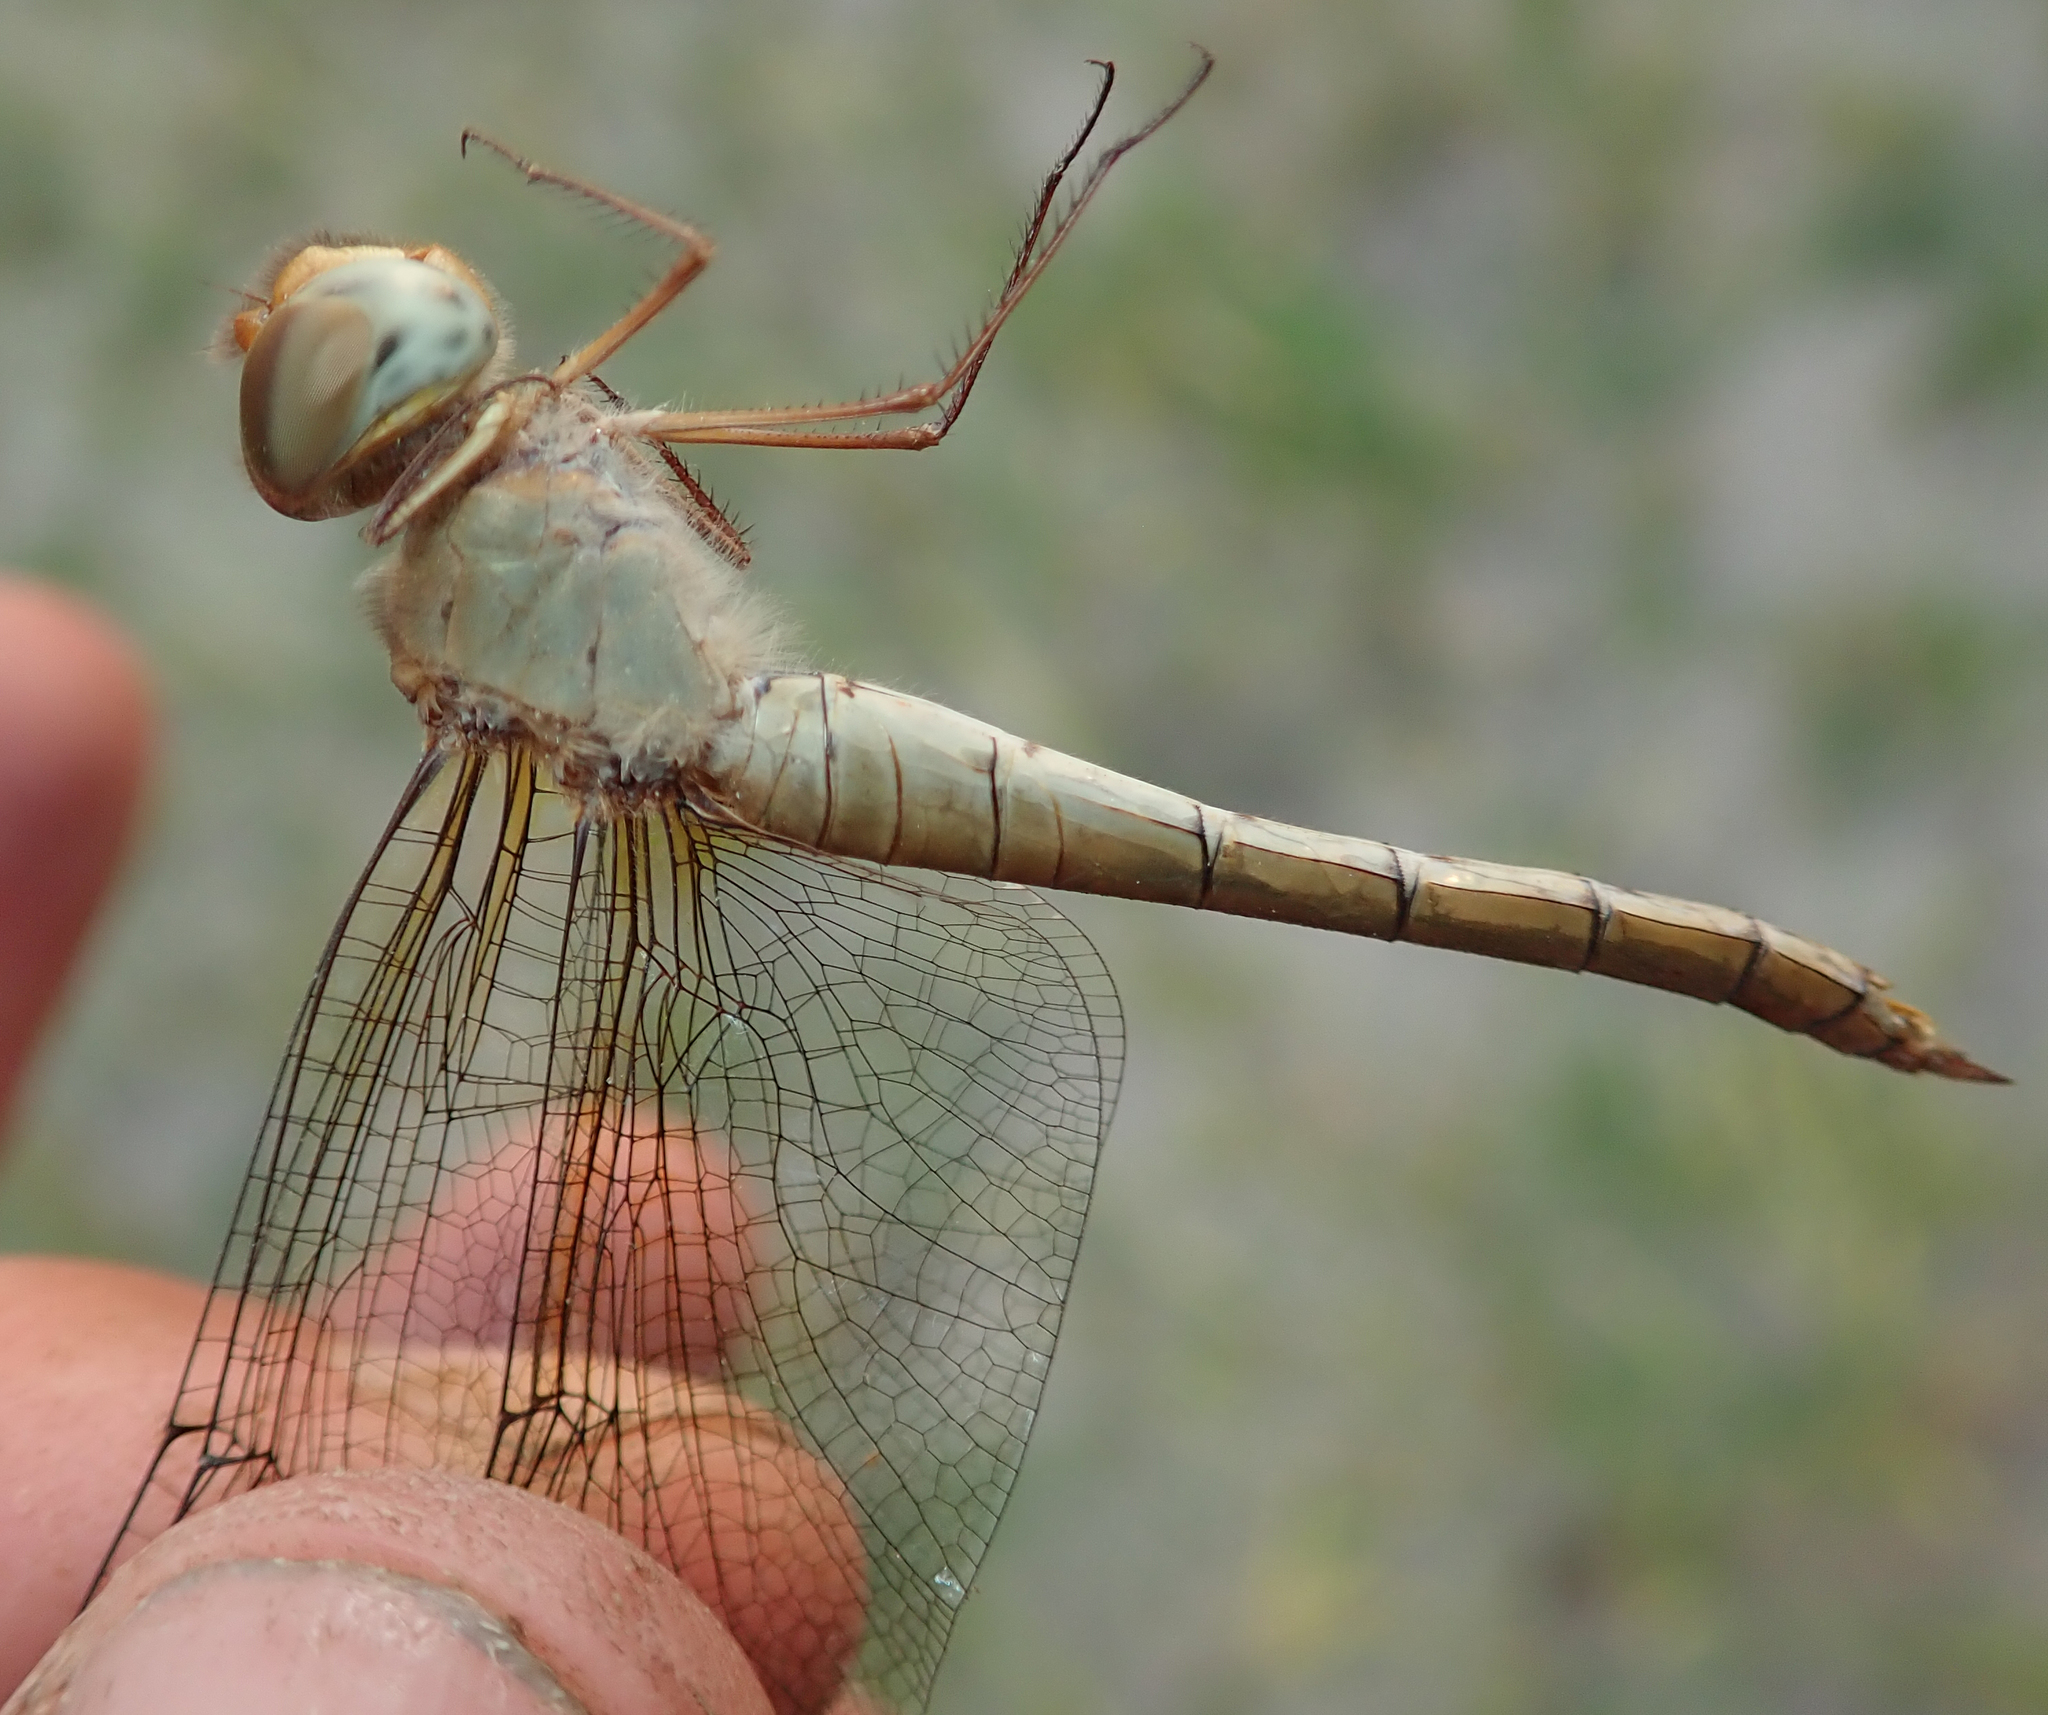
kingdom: Animalia
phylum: Arthropoda
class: Insecta
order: Odonata
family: Libellulidae
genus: Tholymis
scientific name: Tholymis tillarga
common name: Coral-tailed cloud wing
